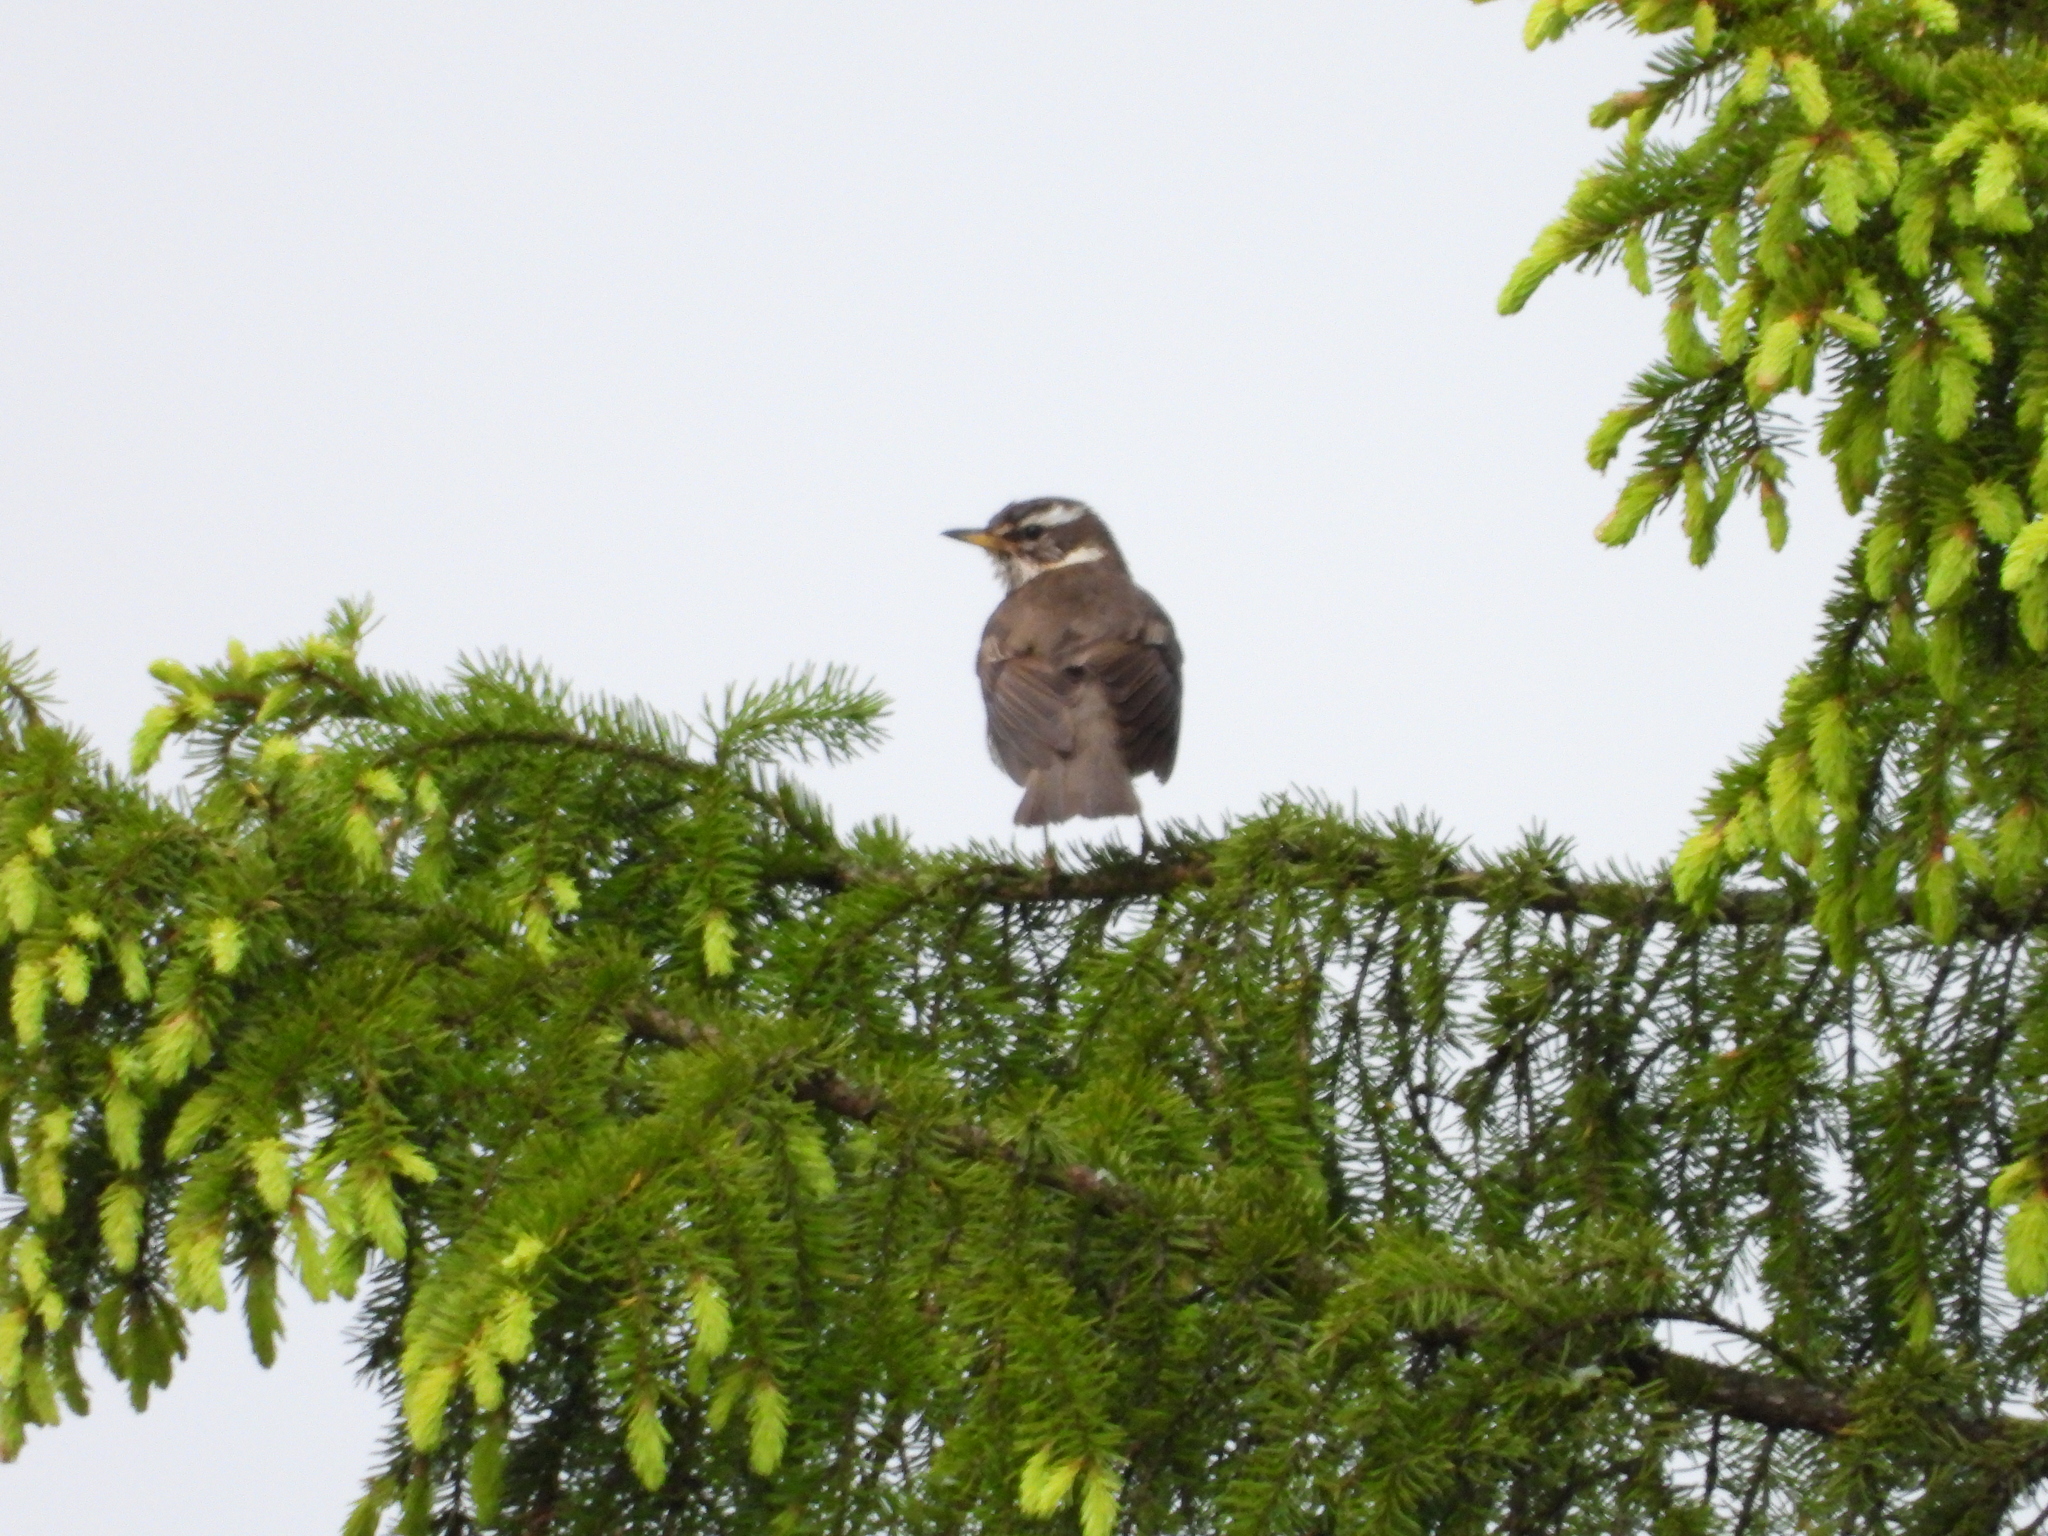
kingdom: Animalia
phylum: Chordata
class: Aves
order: Passeriformes
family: Turdidae
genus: Turdus
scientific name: Turdus iliacus
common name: Redwing
